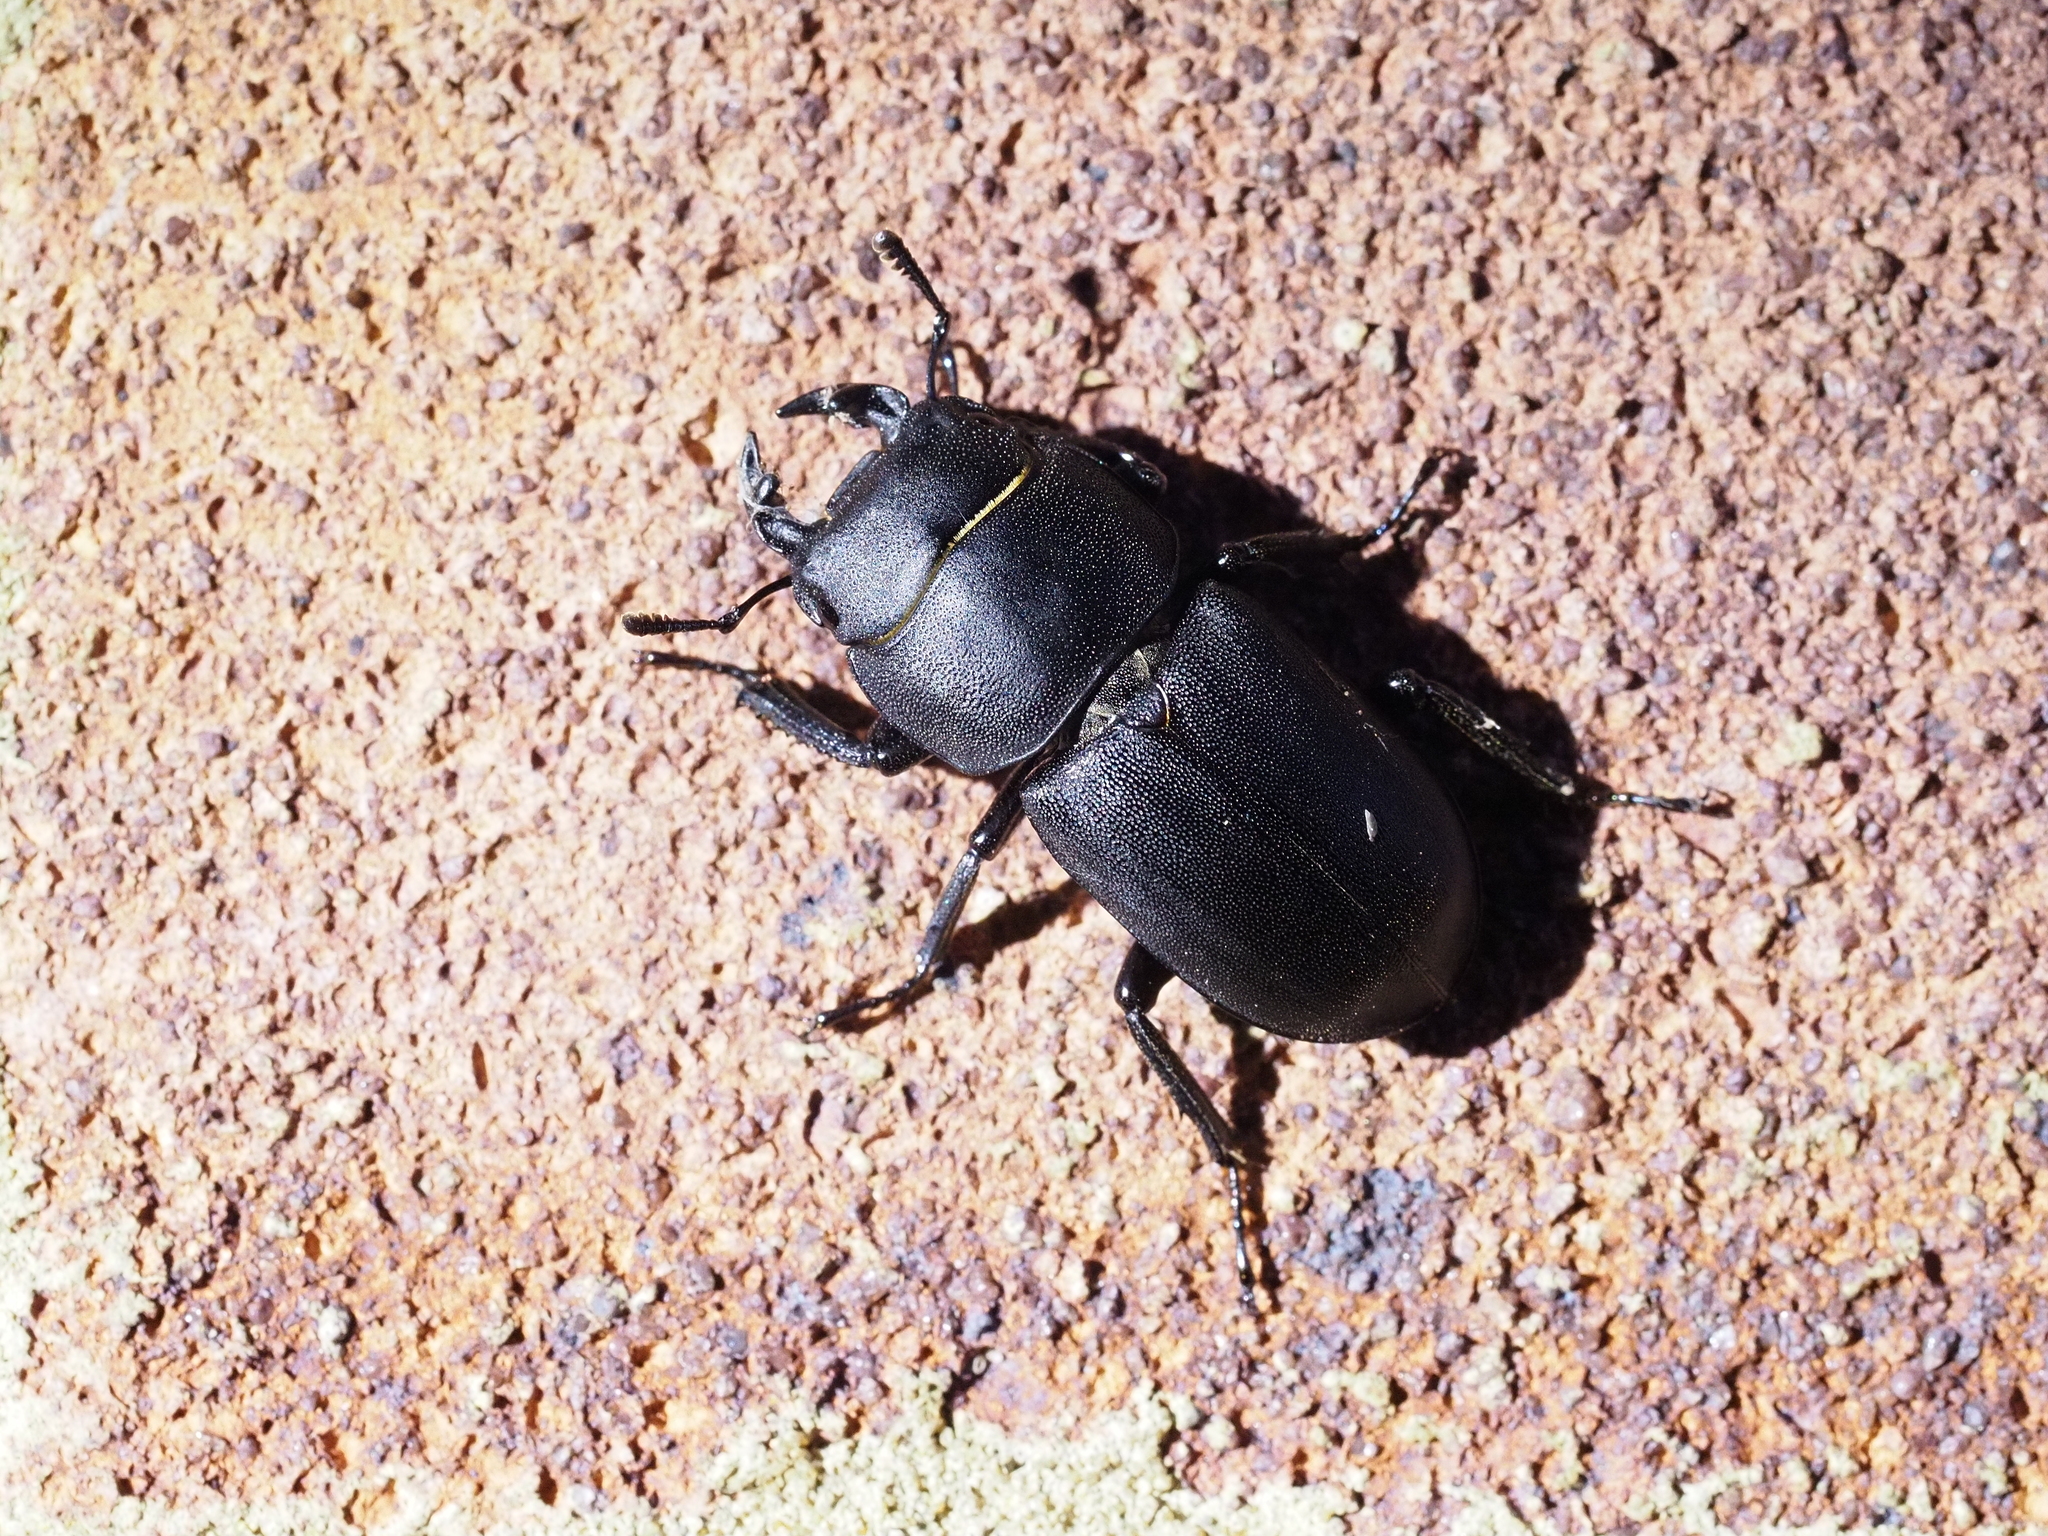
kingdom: Animalia
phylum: Arthropoda
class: Insecta
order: Coleoptera
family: Lucanidae
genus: Dorcus
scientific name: Dorcus parallelipipedus
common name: Lesser stag beetle
